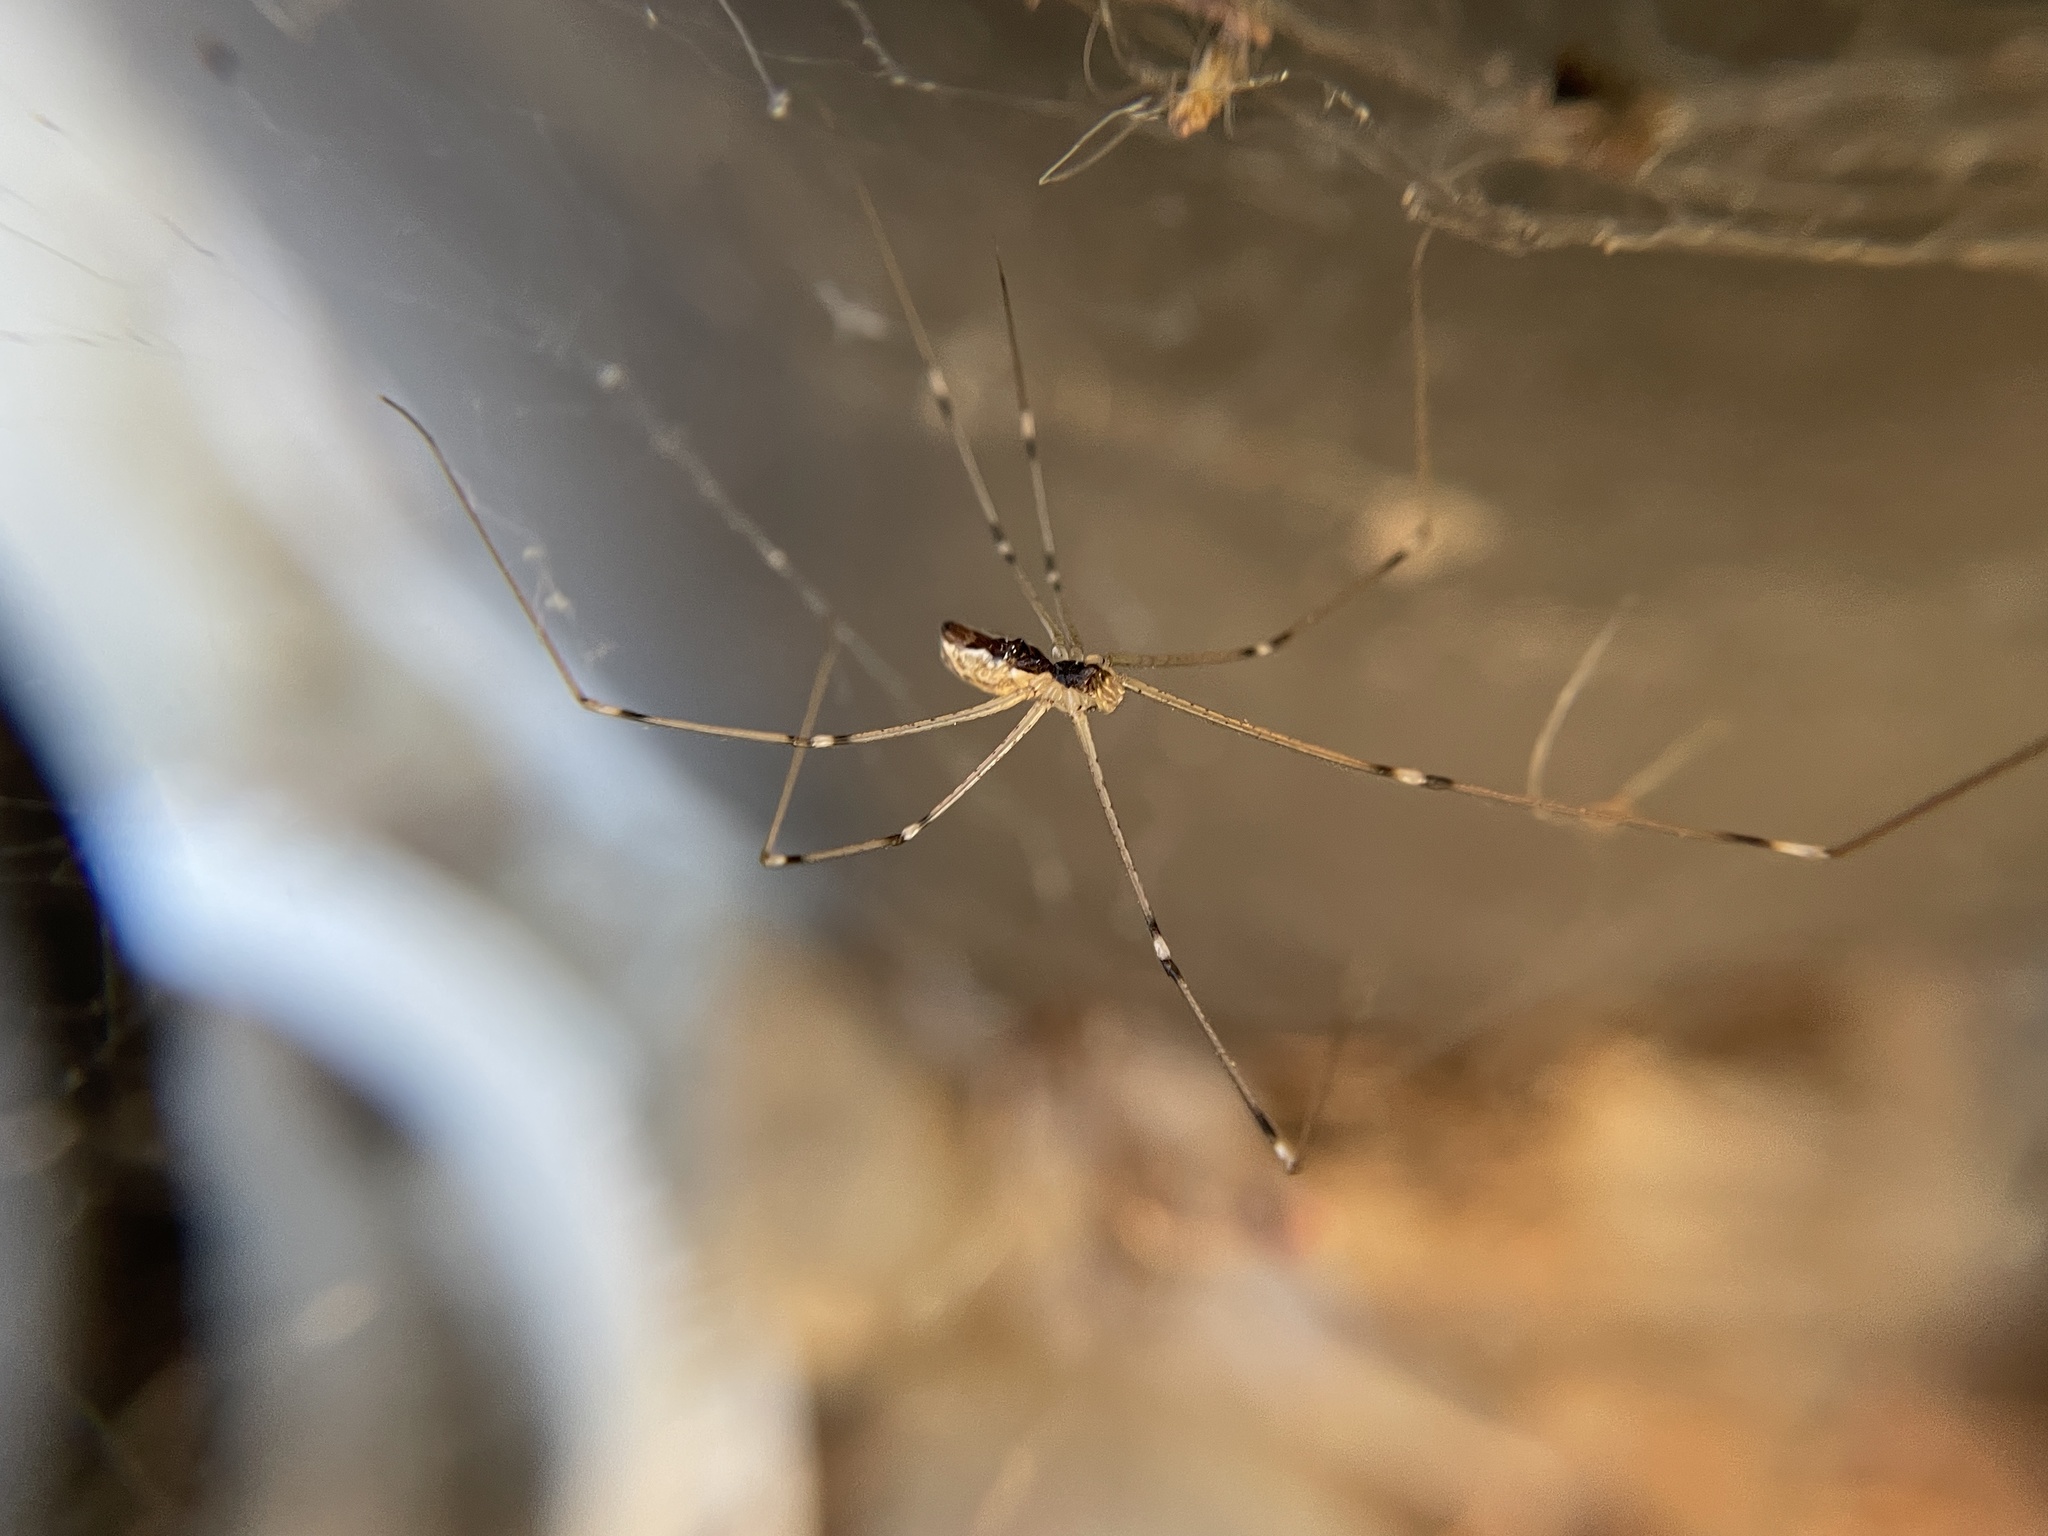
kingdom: Animalia
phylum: Arthropoda
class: Arachnida
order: Araneae
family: Pholcidae
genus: Holocnemus
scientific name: Holocnemus pluchei
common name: Marbled cellar spider
